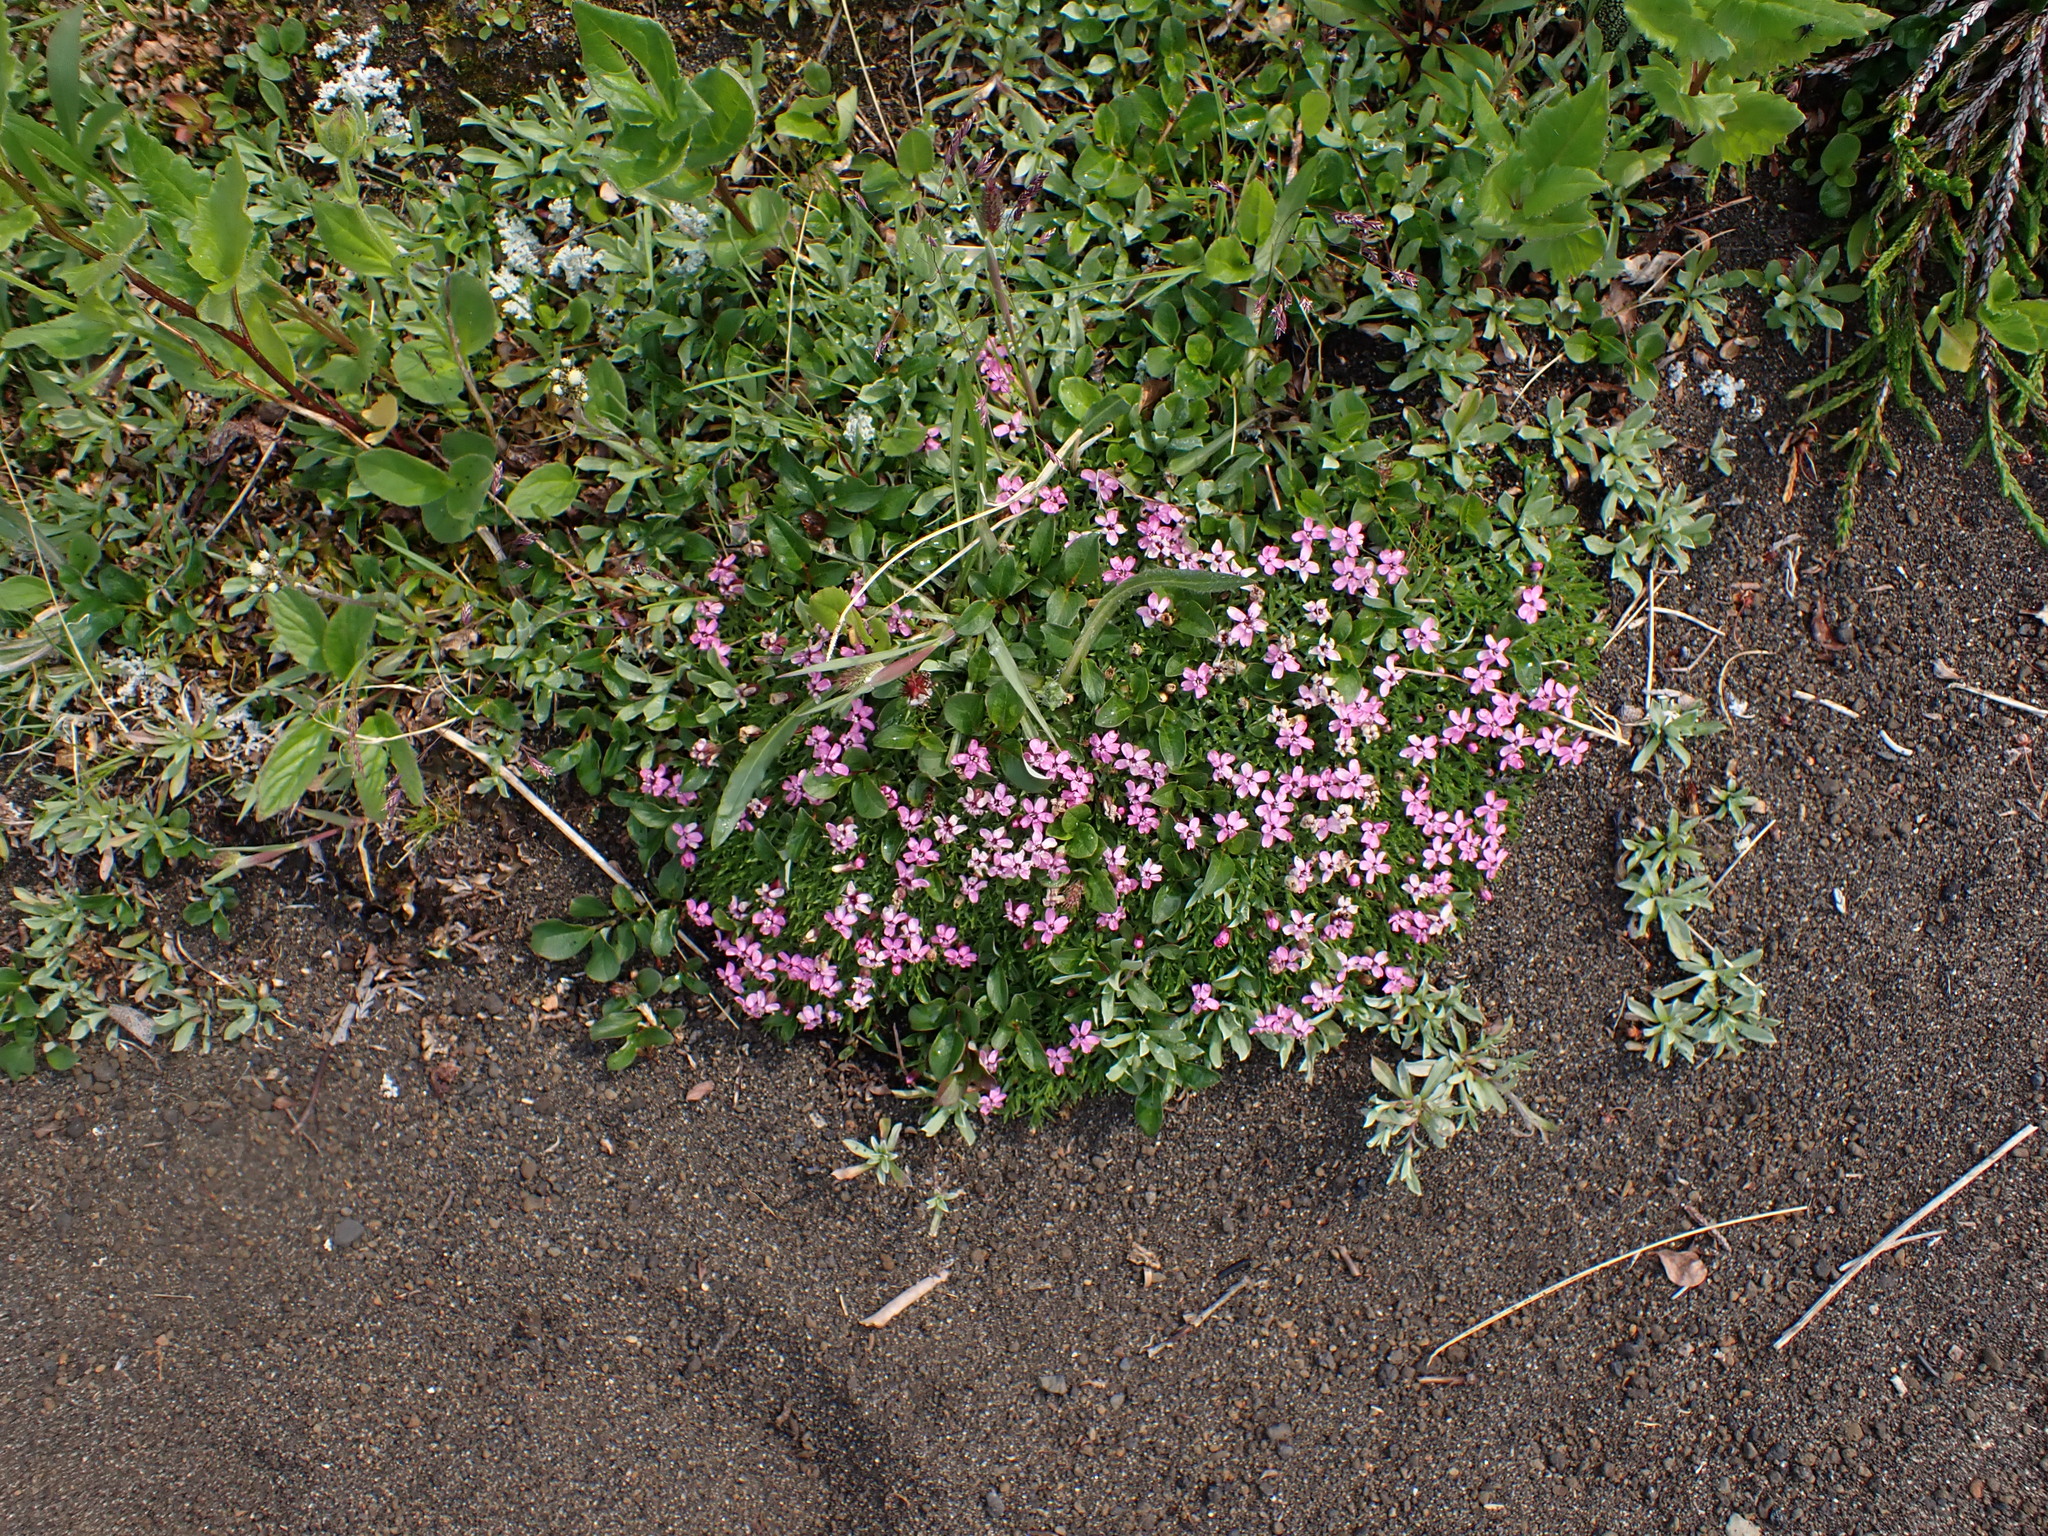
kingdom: Plantae
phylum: Tracheophyta
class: Magnoliopsida
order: Caryophyllales
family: Caryophyllaceae
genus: Silene
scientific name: Silene acaulis
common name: Moss campion
